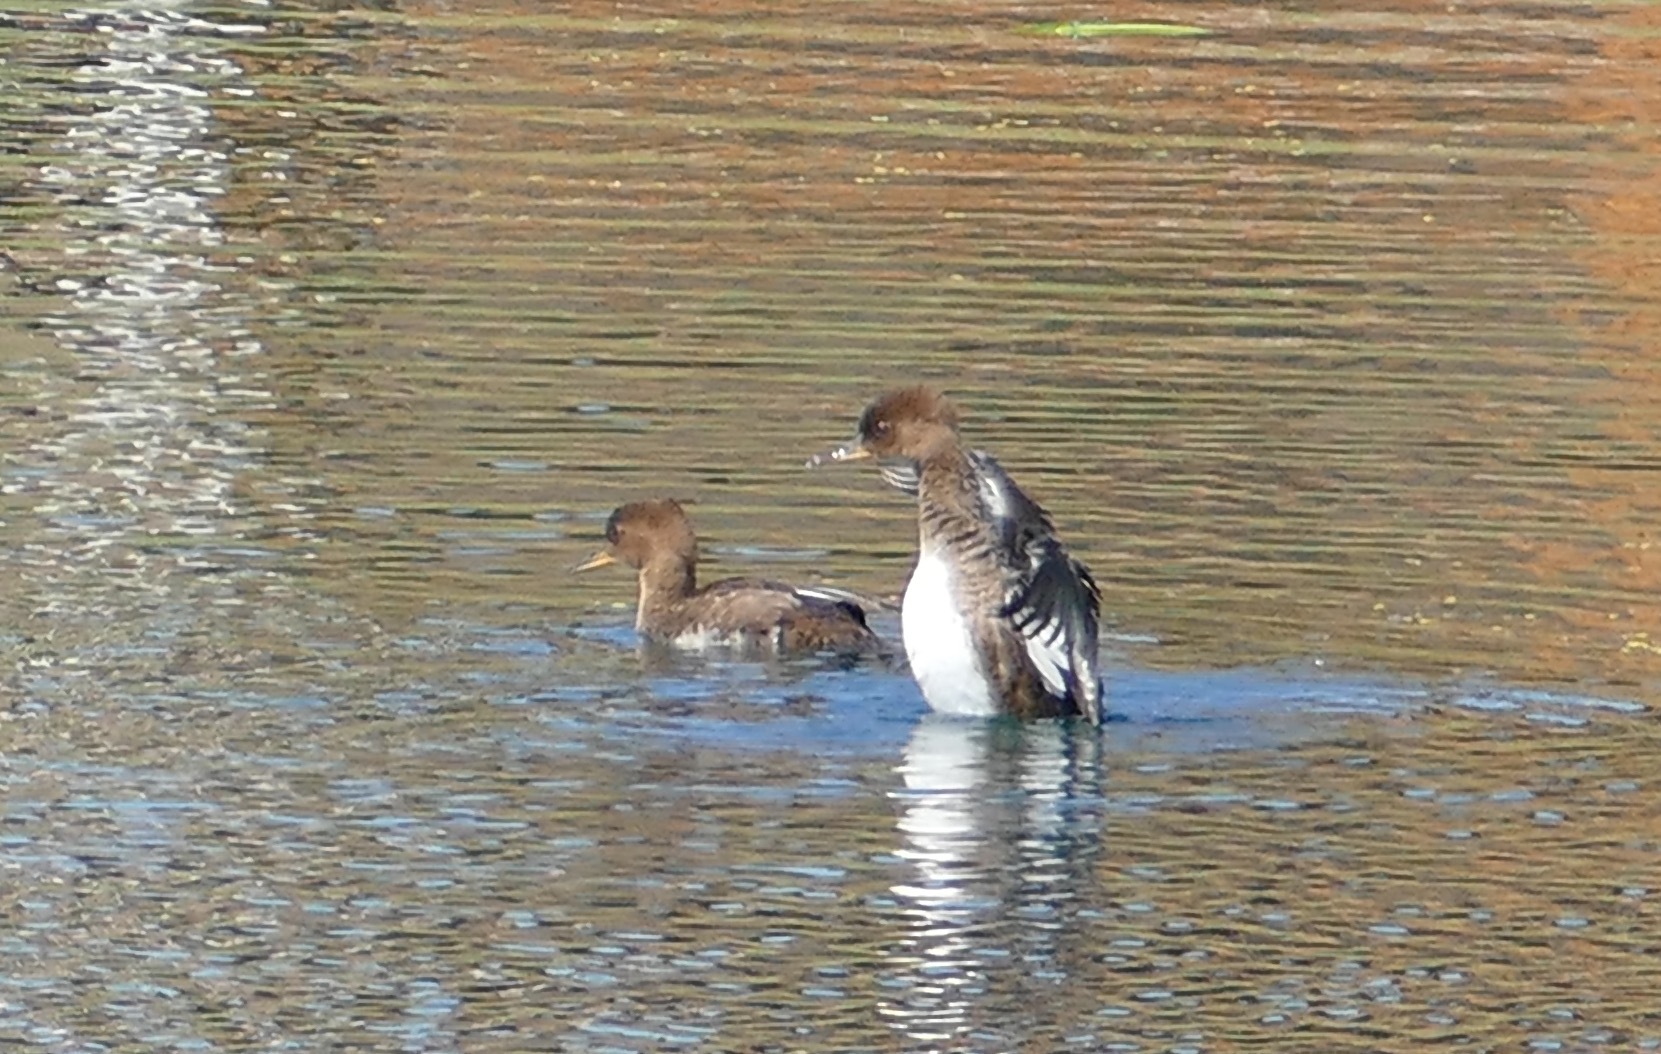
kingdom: Animalia
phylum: Chordata
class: Aves
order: Anseriformes
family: Anatidae
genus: Lophodytes
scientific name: Lophodytes cucullatus
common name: Hooded merganser
